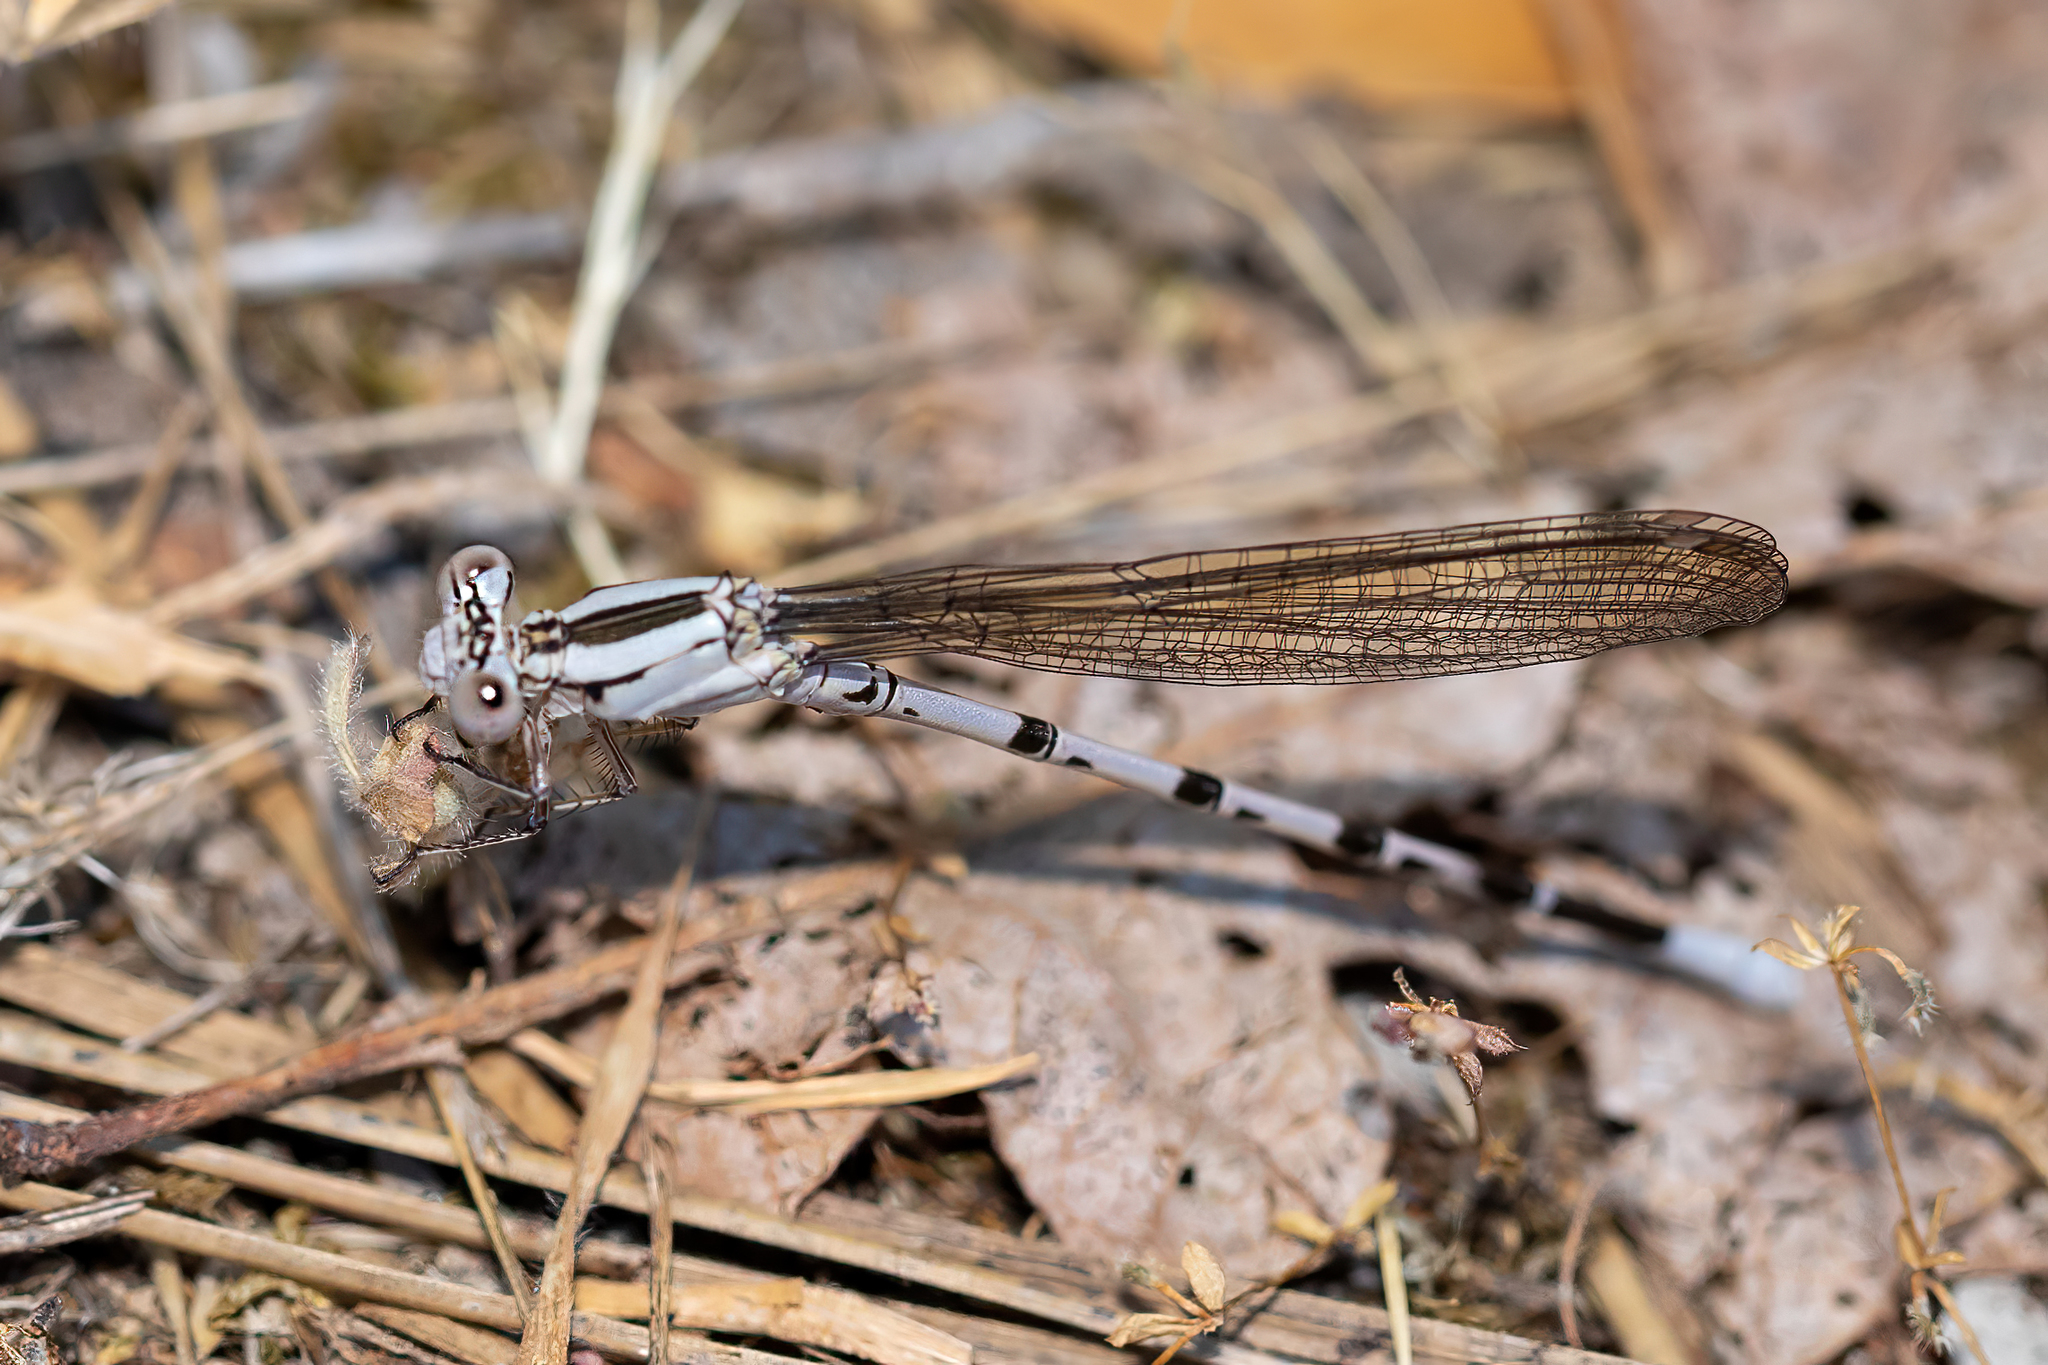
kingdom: Animalia
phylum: Arthropoda
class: Insecta
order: Odonata
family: Coenagrionidae
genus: Argia
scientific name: Argia vivida
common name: Vivid dancer
